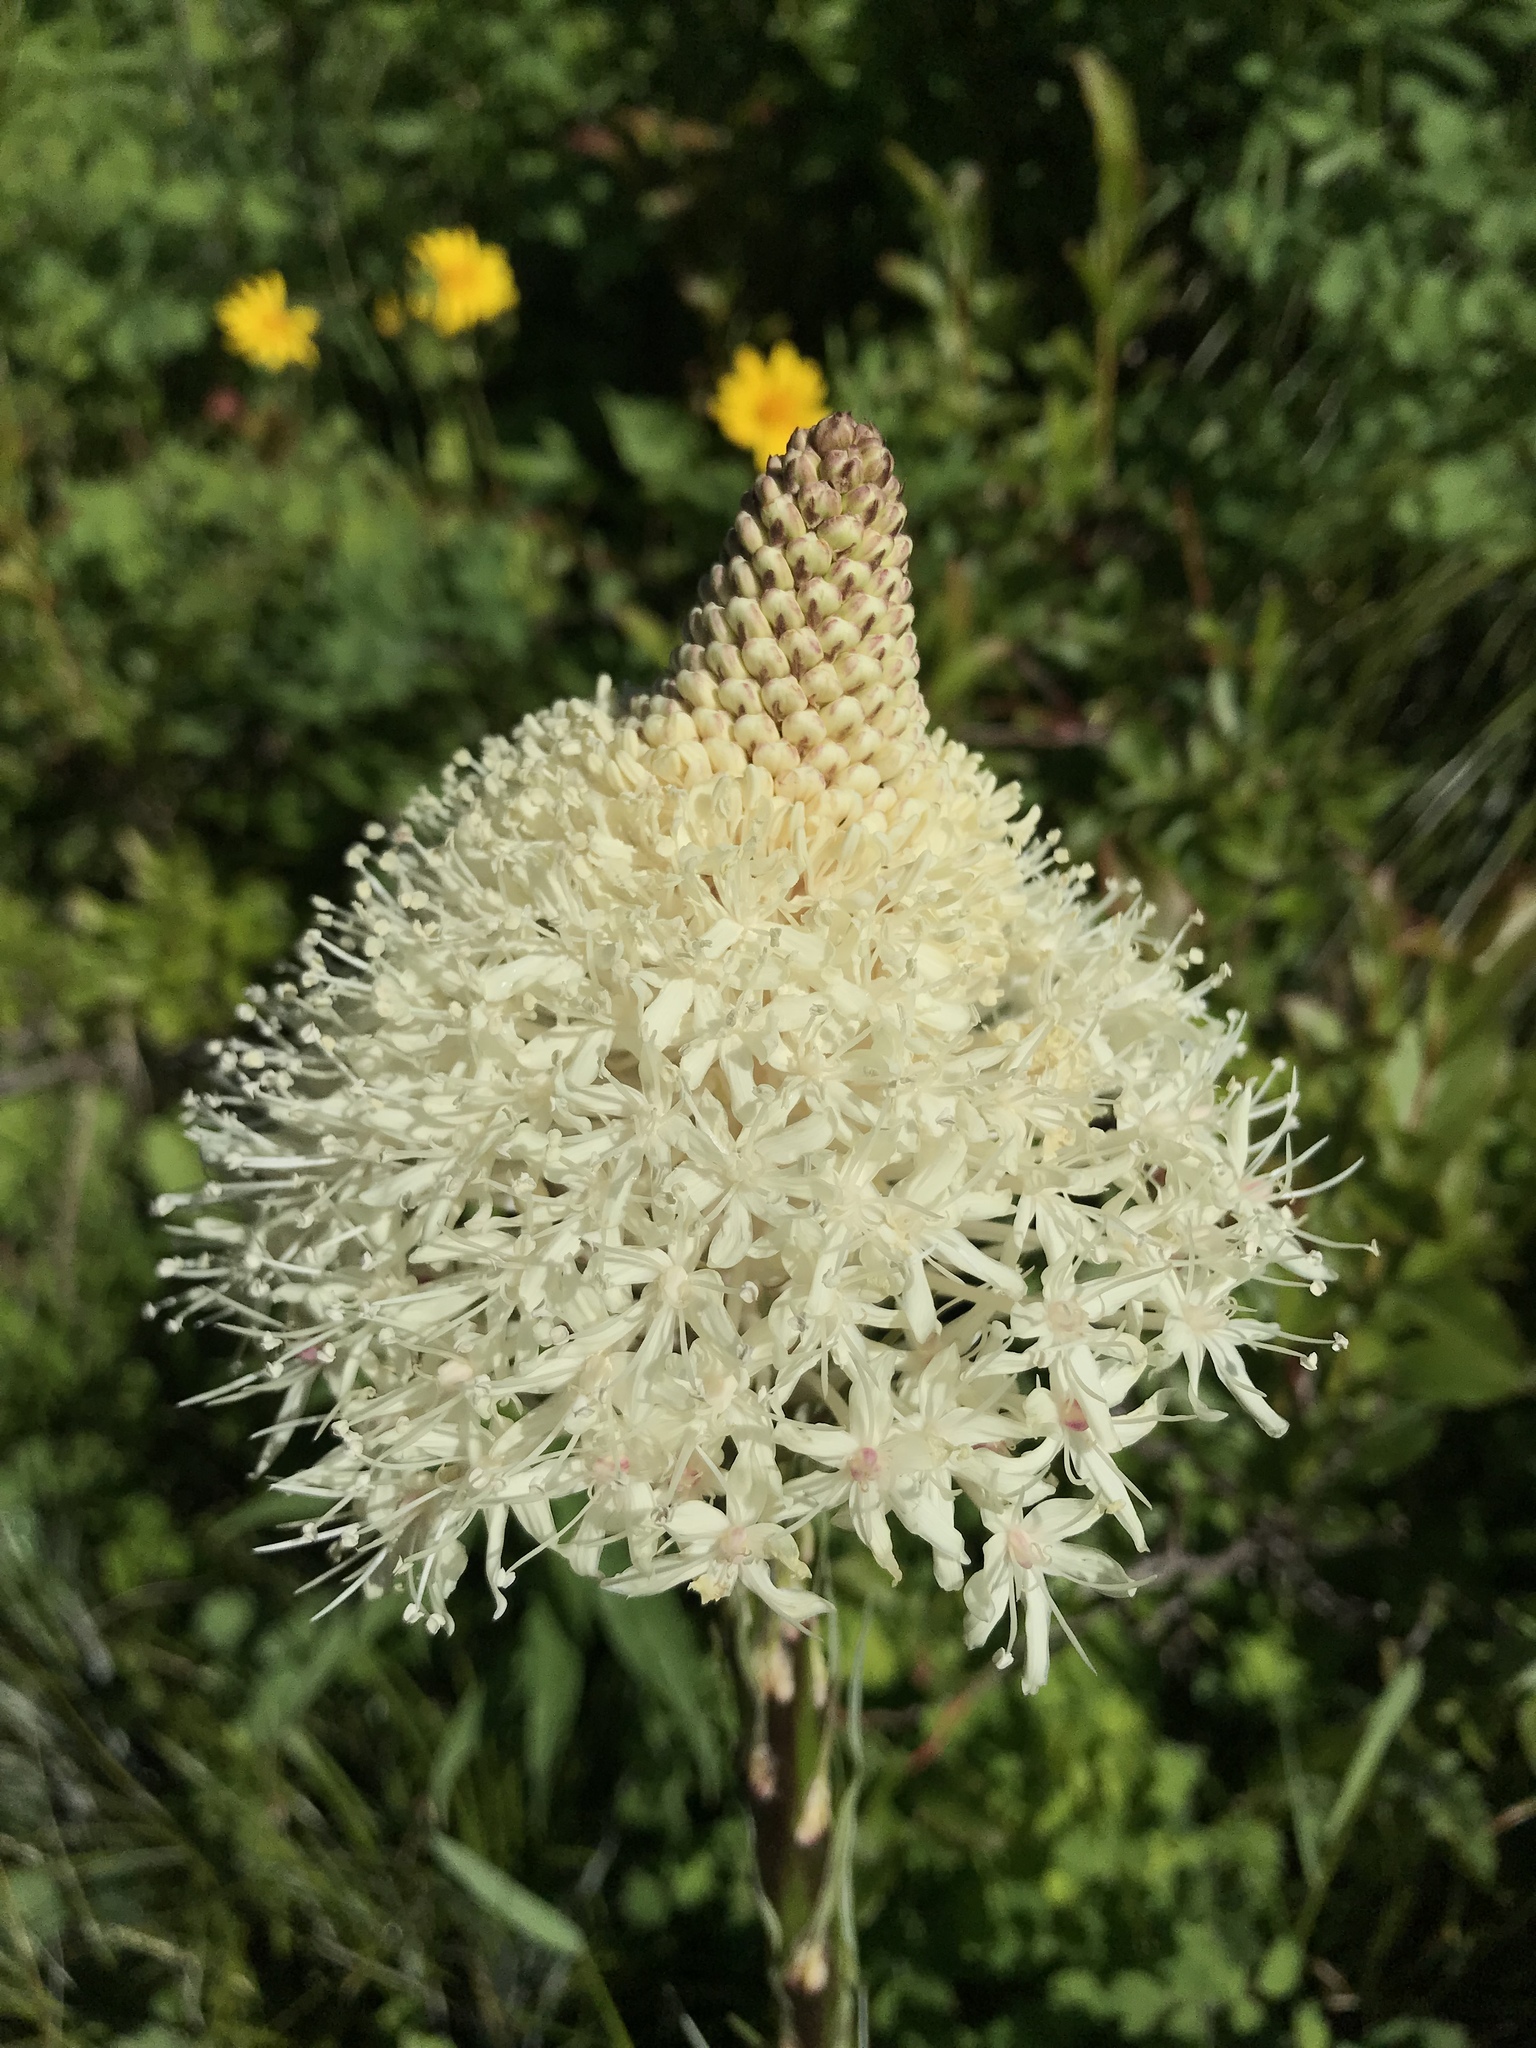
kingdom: Plantae
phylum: Tracheophyta
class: Liliopsida
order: Liliales
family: Melanthiaceae
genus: Xerophyllum
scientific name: Xerophyllum tenax
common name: Bear-grass
